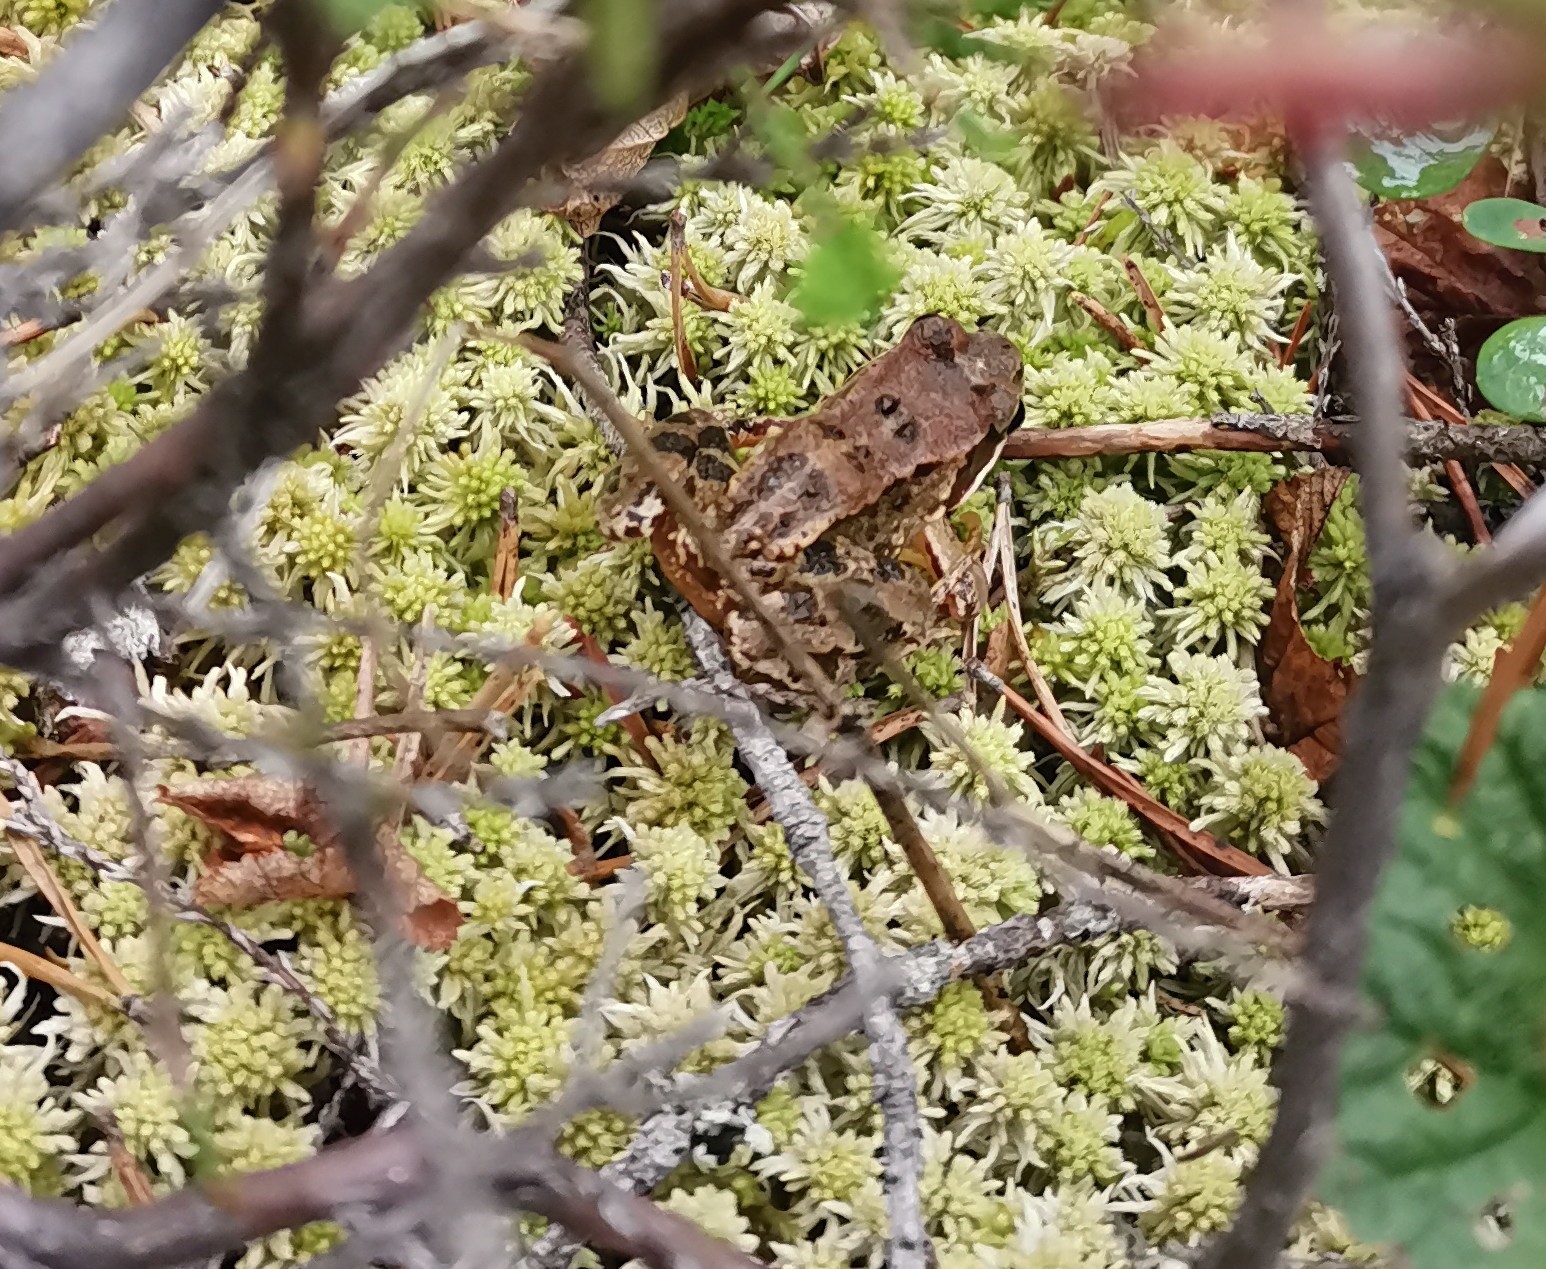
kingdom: Animalia
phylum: Chordata
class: Amphibia
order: Anura
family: Ranidae
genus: Rana
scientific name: Rana temporaria
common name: Common frog
